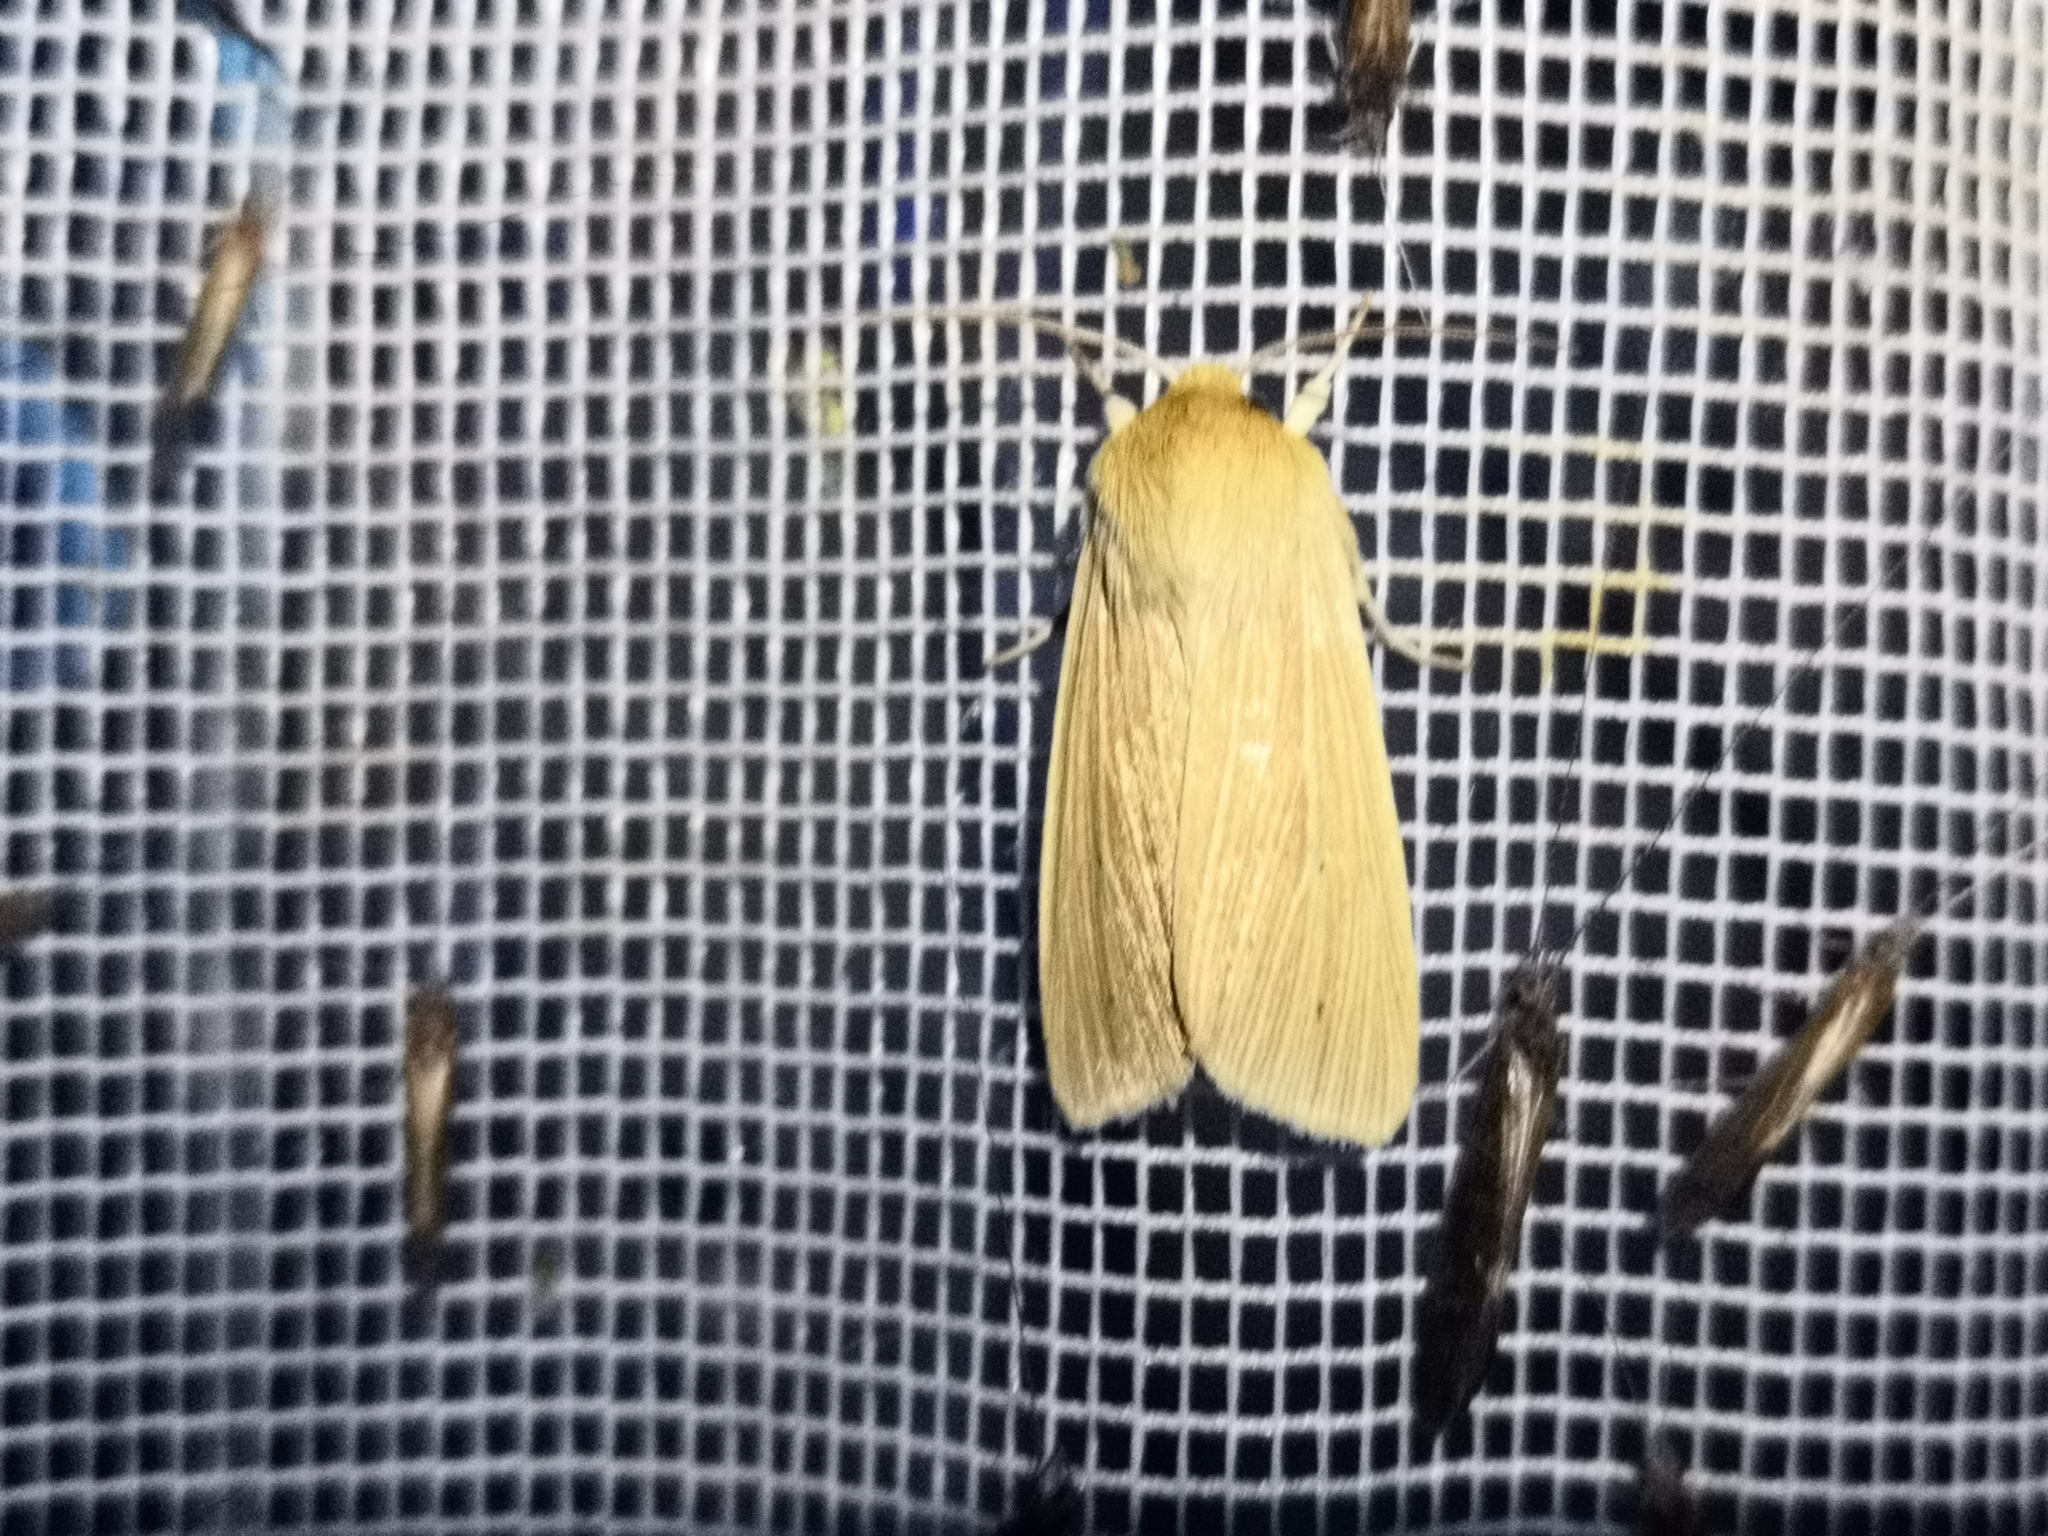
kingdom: Animalia
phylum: Arthropoda
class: Insecta
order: Lepidoptera
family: Noctuidae
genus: Mythimna
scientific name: Mythimna pallens
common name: Common wainscot
